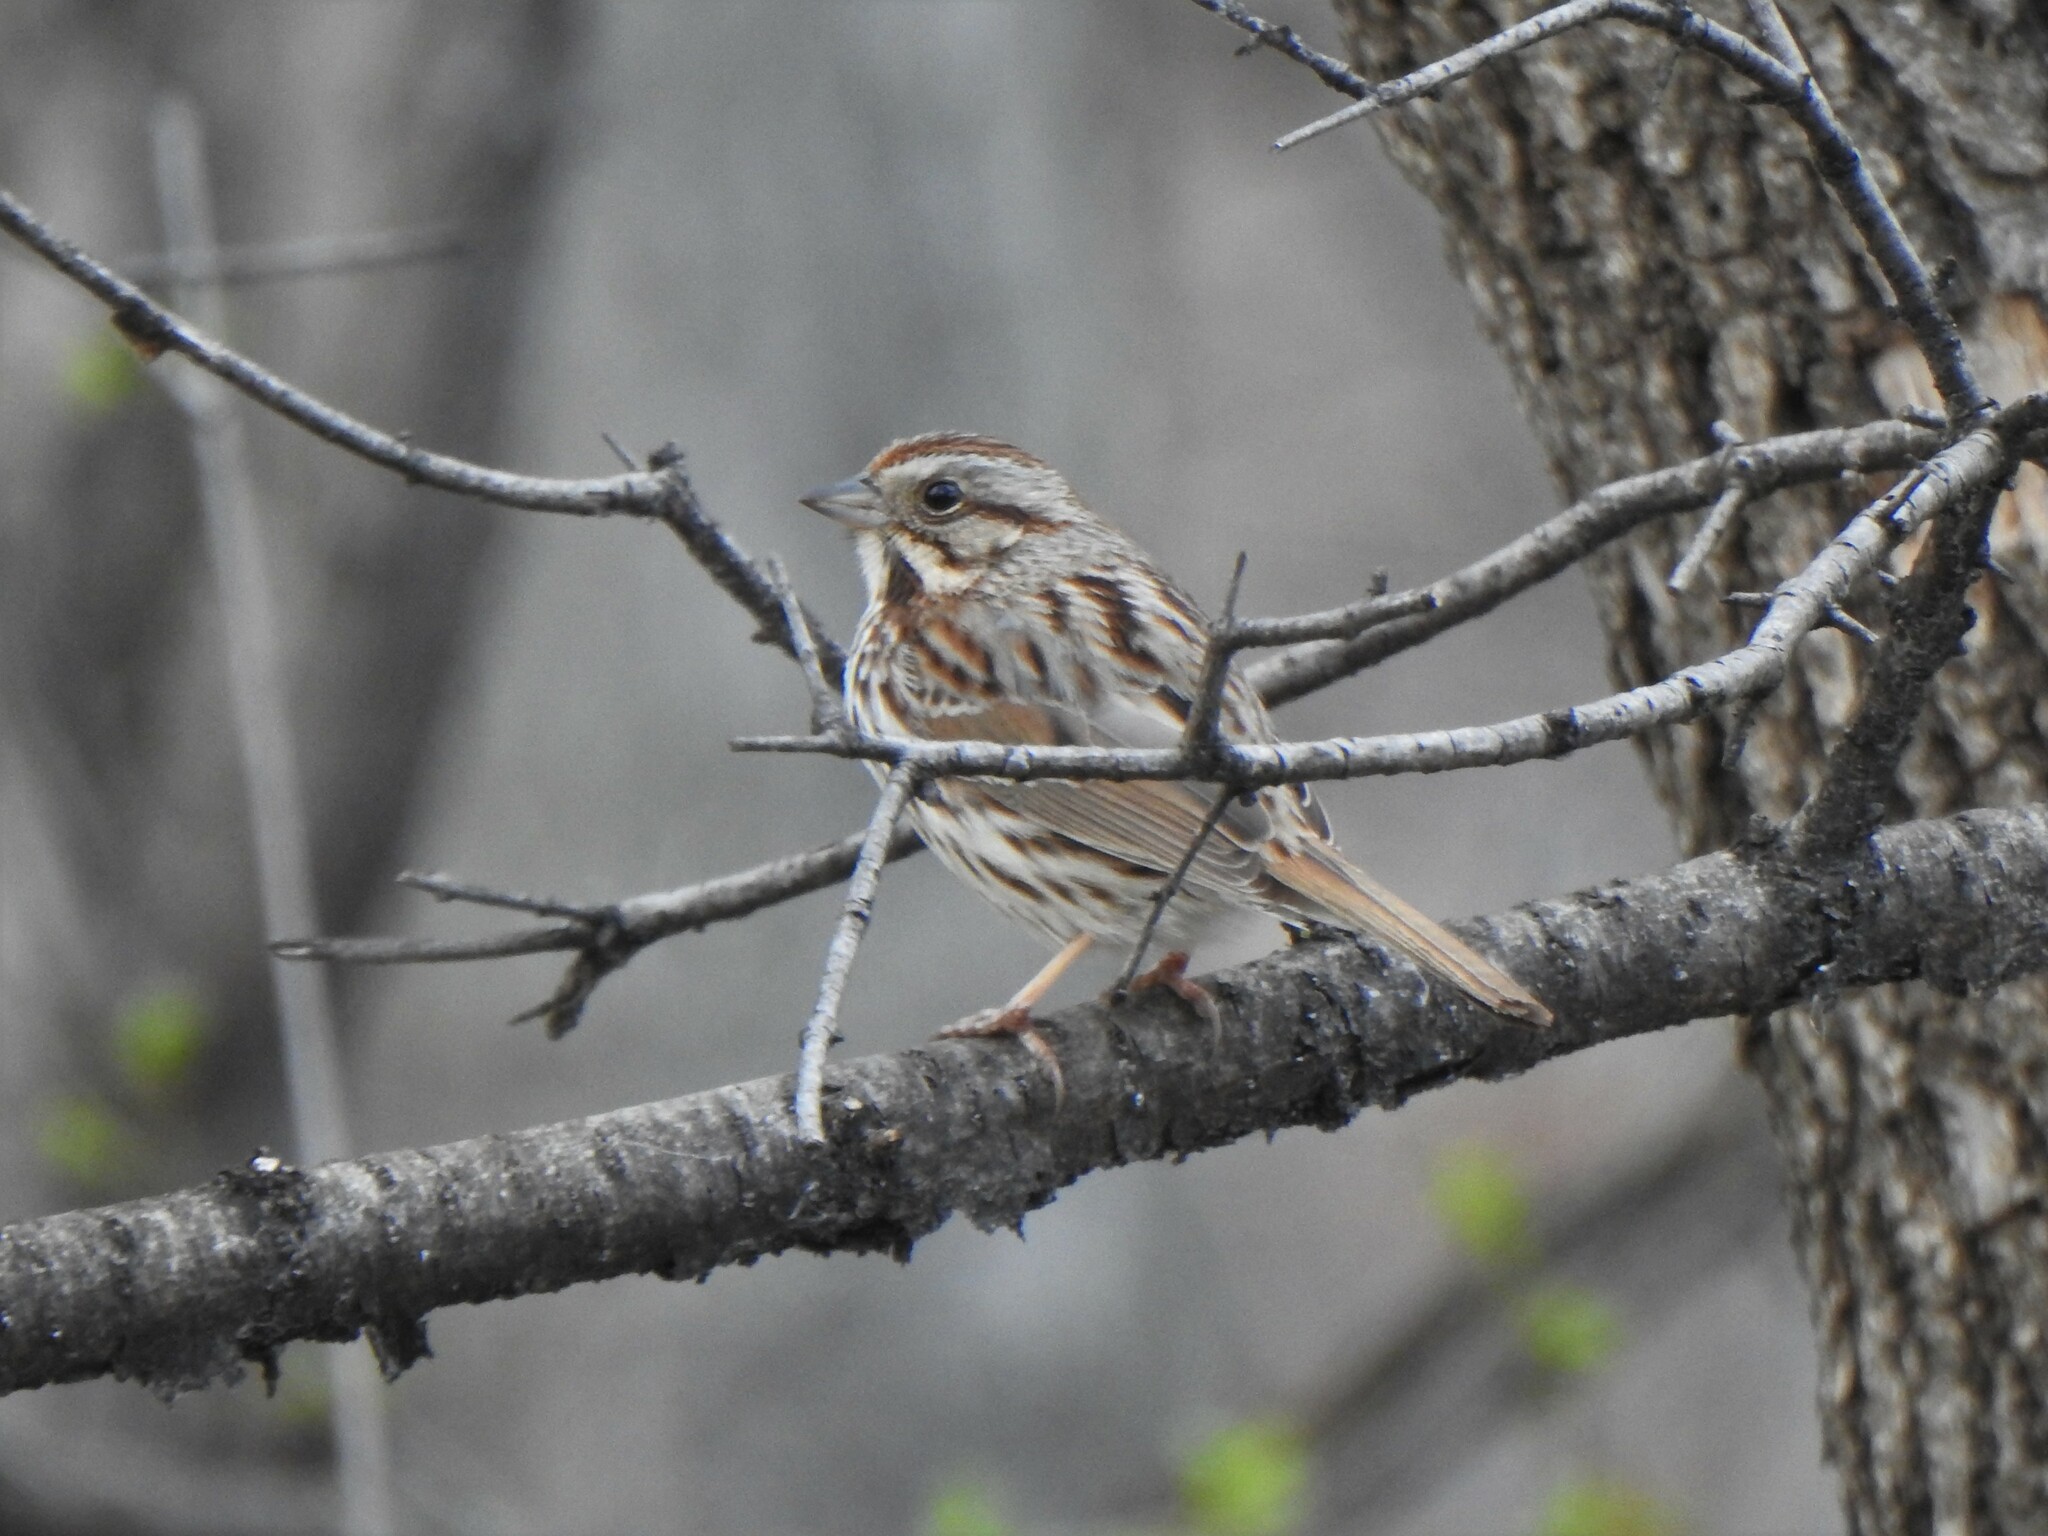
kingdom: Animalia
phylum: Chordata
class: Aves
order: Passeriformes
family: Passerellidae
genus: Melospiza
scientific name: Melospiza melodia
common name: Song sparrow
